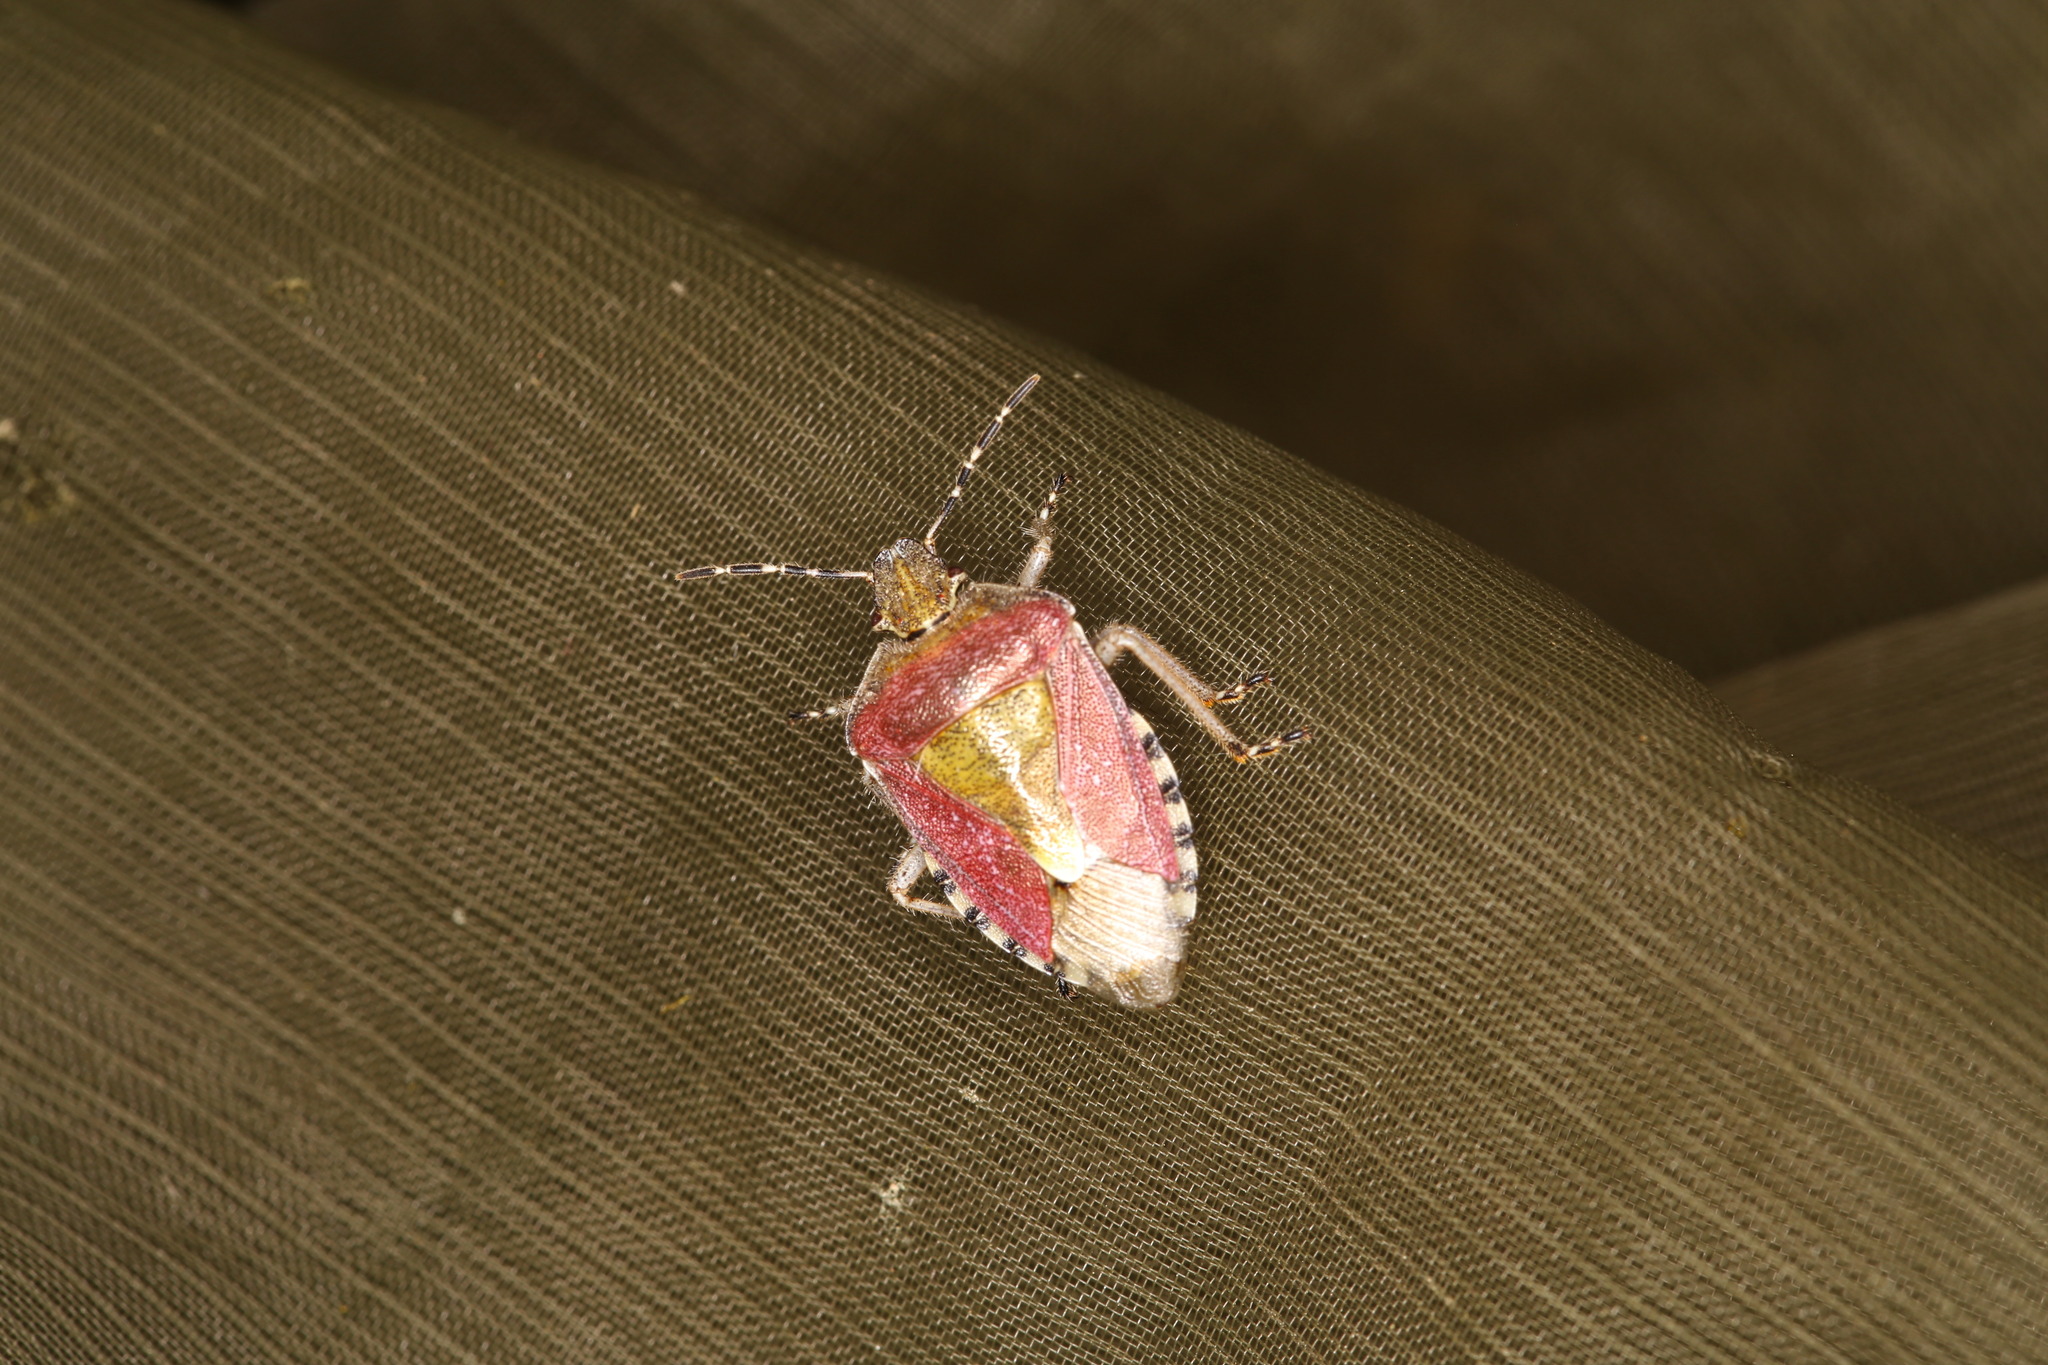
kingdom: Animalia
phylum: Arthropoda
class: Insecta
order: Hemiptera
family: Pentatomidae
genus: Dolycoris
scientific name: Dolycoris baccarum
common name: Sloe bug
